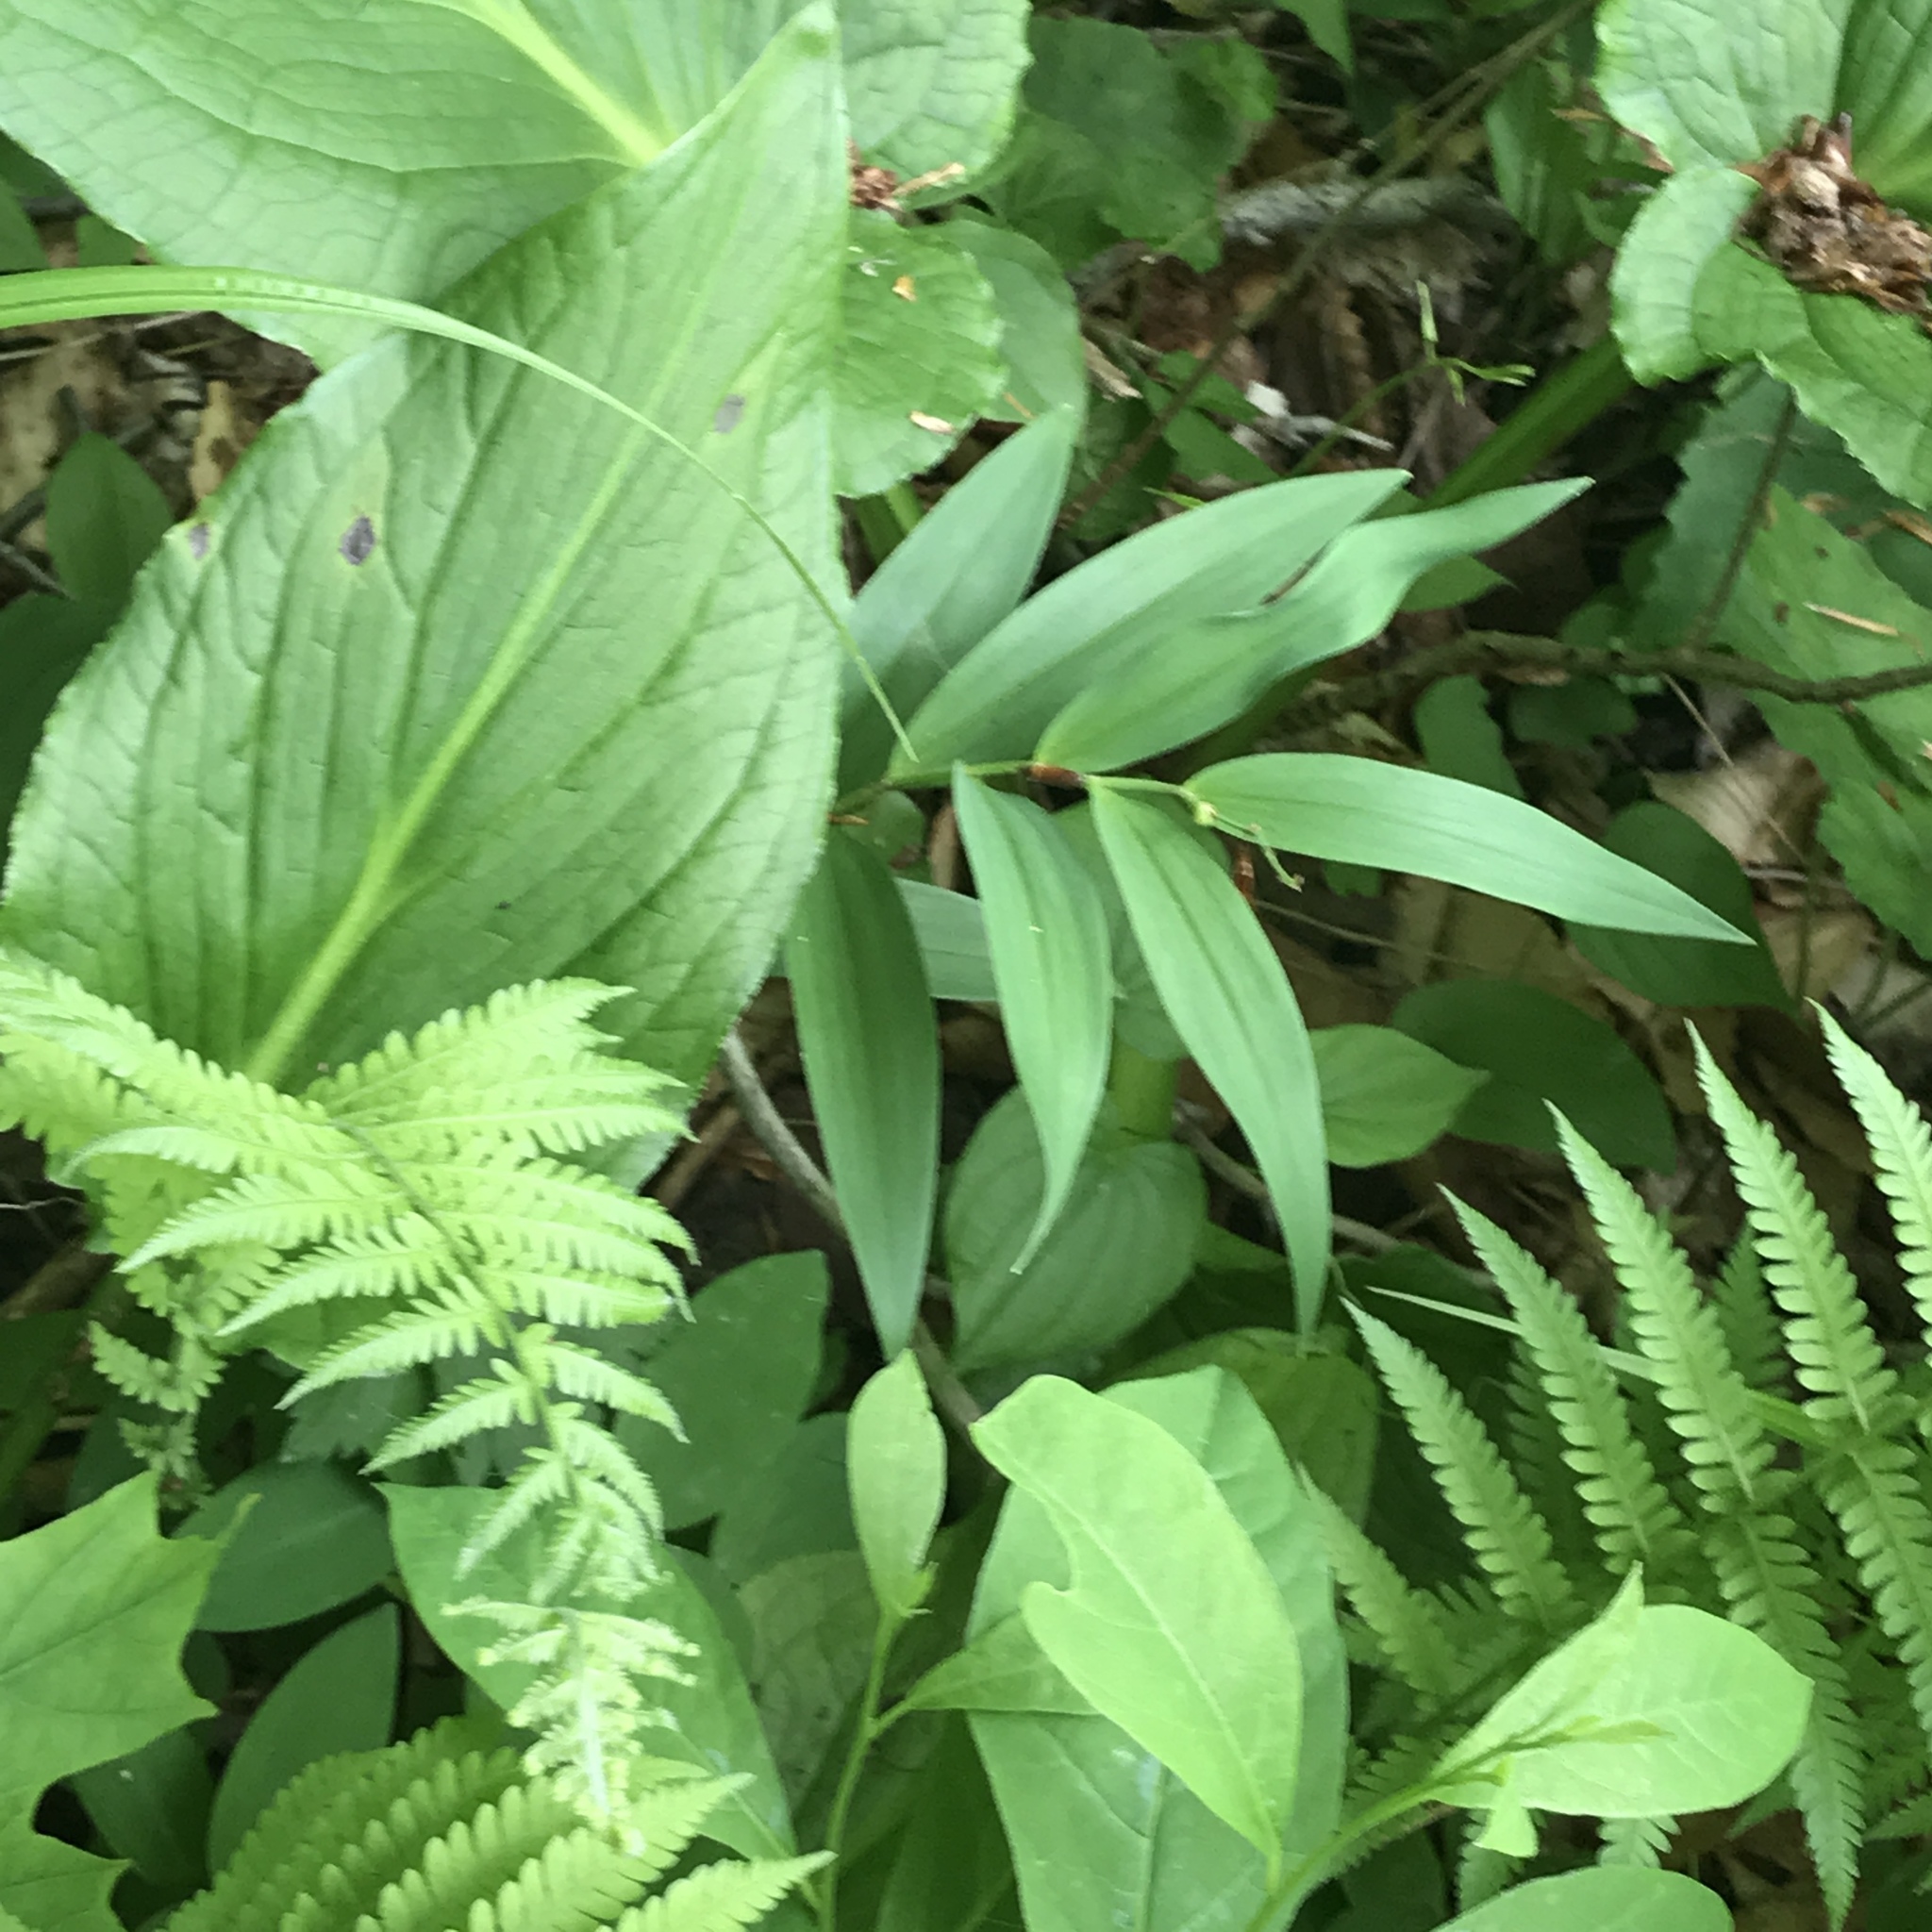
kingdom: Plantae
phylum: Tracheophyta
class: Liliopsida
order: Asparagales
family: Asparagaceae
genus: Maianthemum
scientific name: Maianthemum stellatum
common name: Little false solomon's seal
